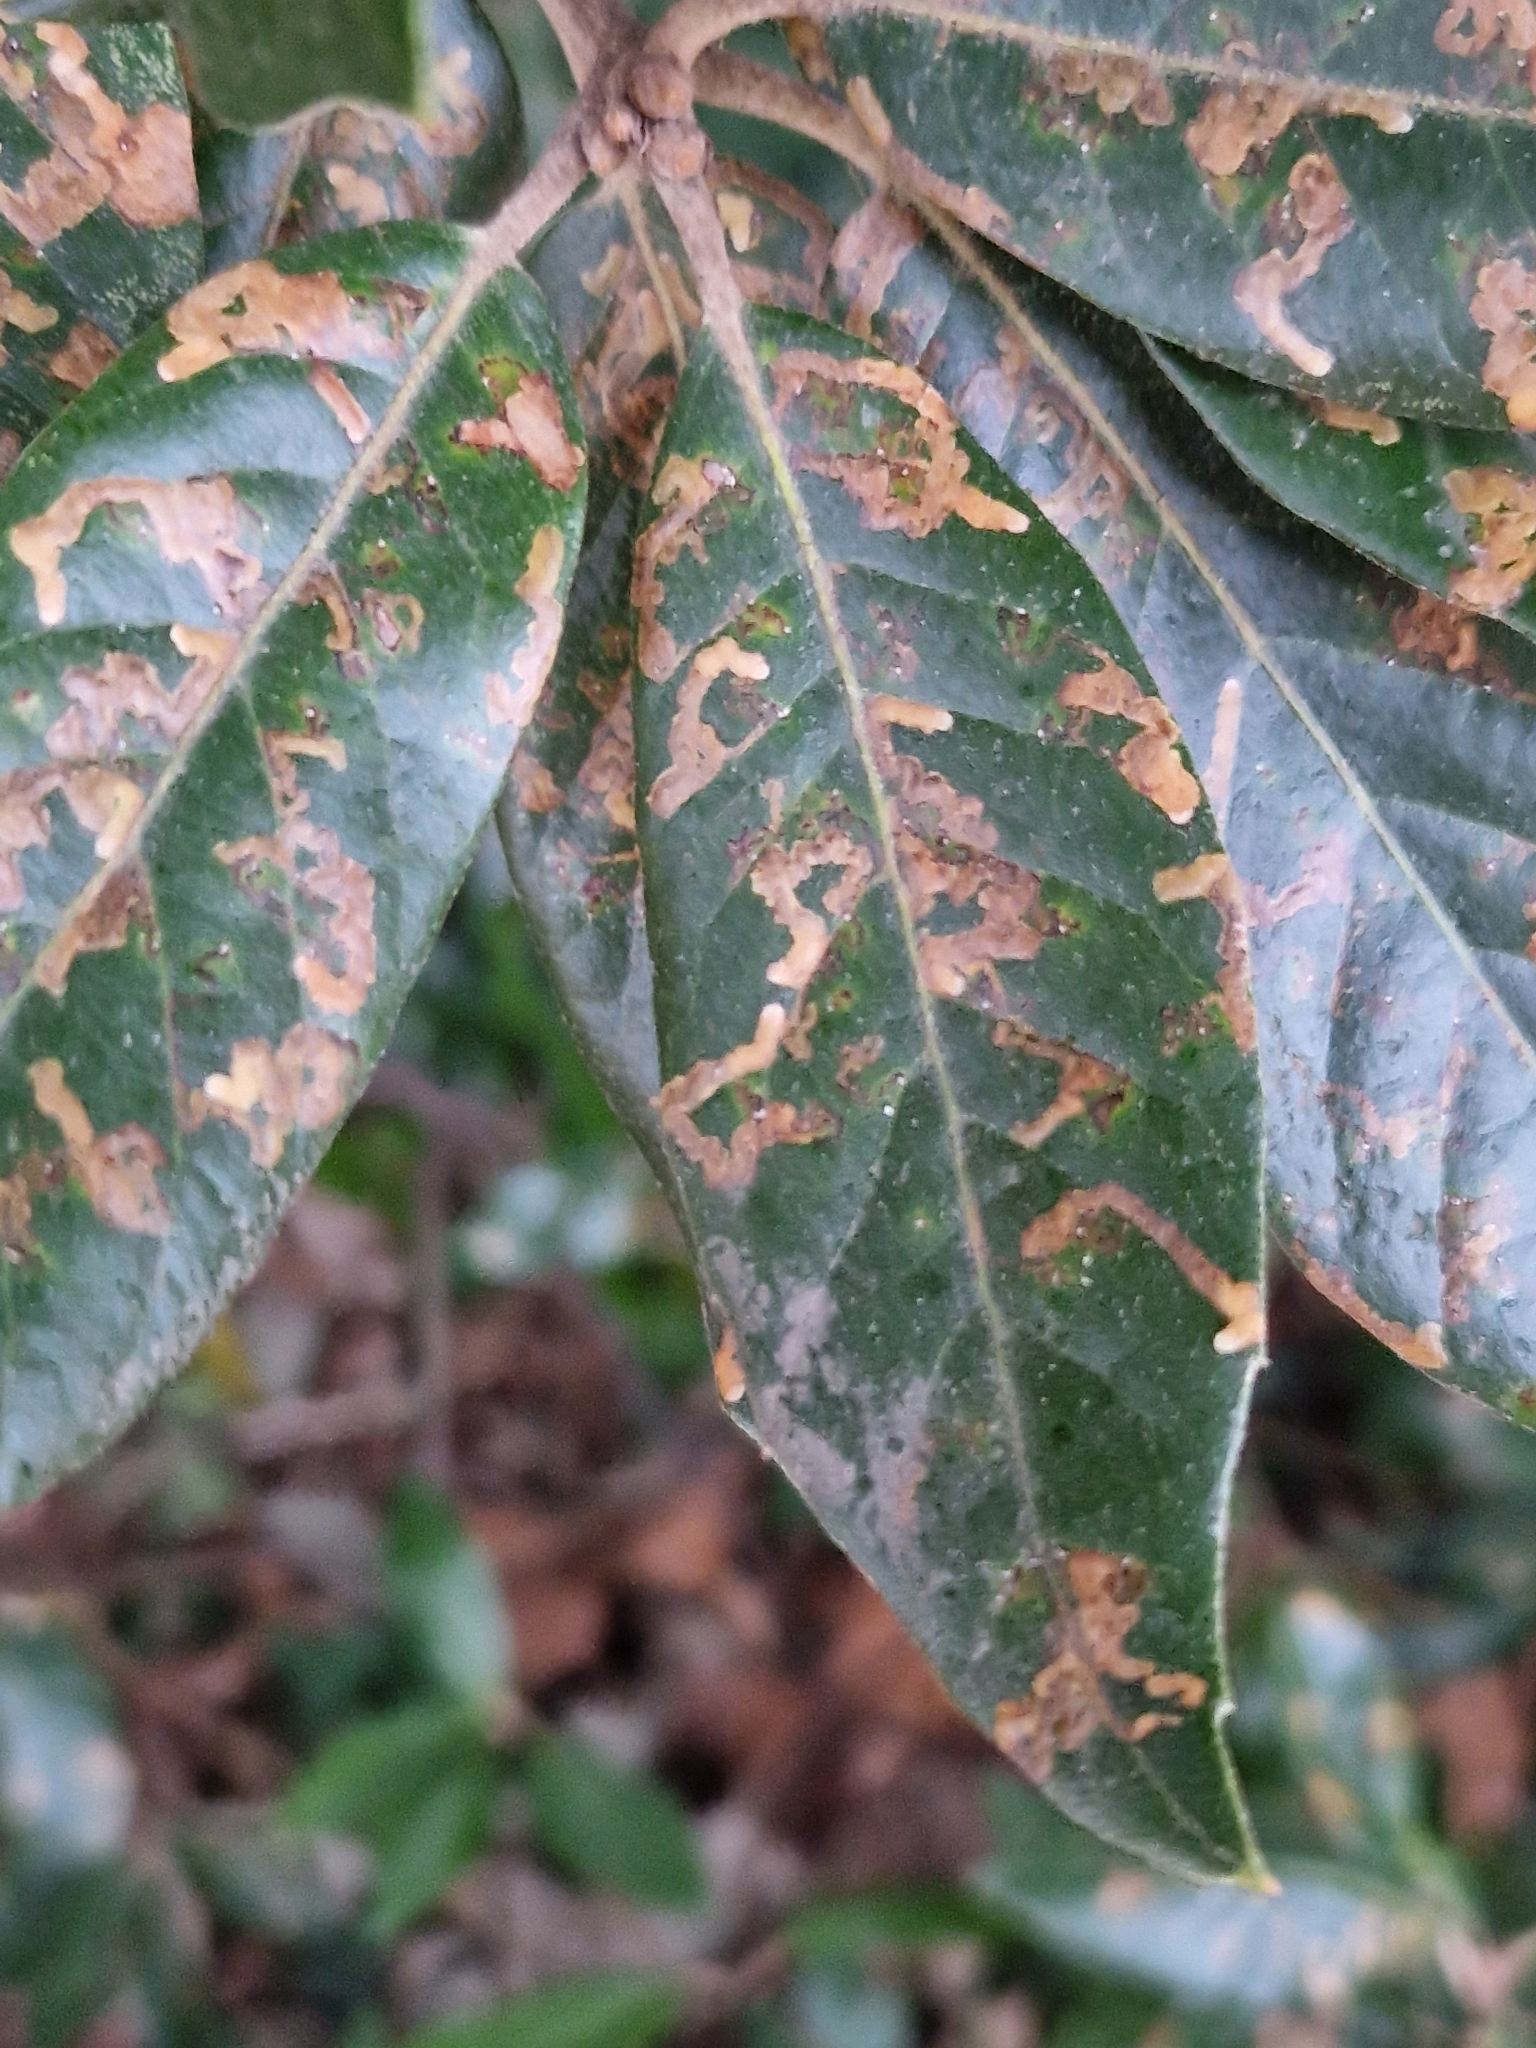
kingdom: Animalia
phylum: Arthropoda
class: Insecta
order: Lepidoptera
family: Nepticulidae
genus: Ectoedemia
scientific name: Ectoedemia heringella
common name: New holm-oak pigmy
